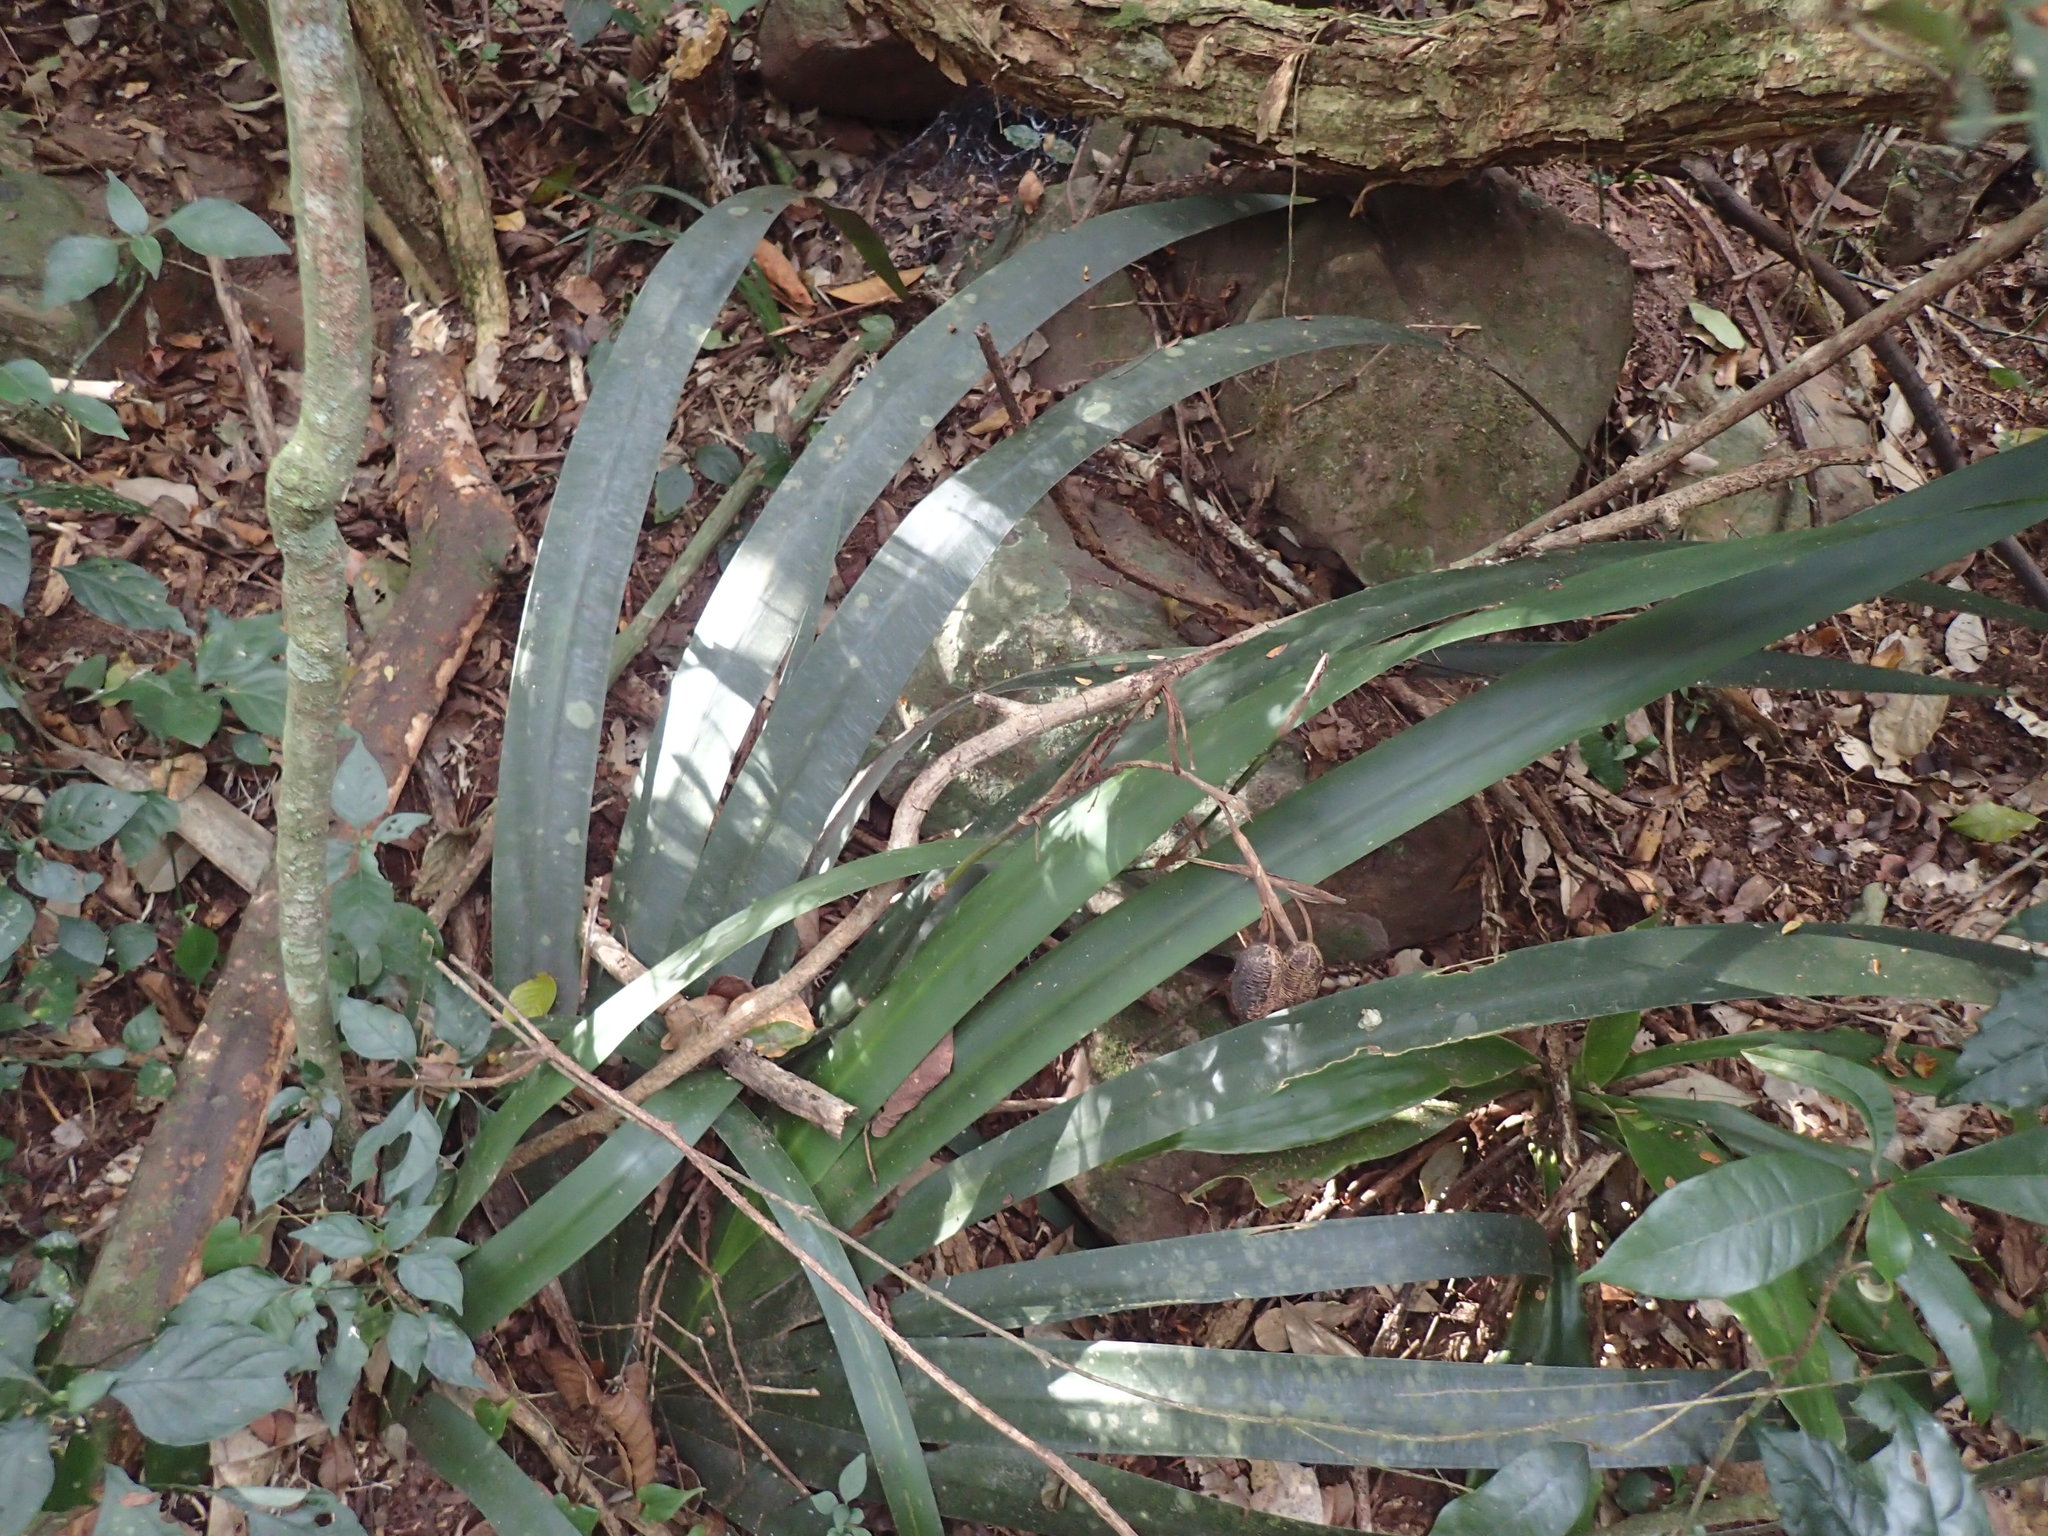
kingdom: Plantae
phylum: Tracheophyta
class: Liliopsida
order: Asparagales
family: Iridaceae
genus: Dietes
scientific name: Dietes butcheriana
